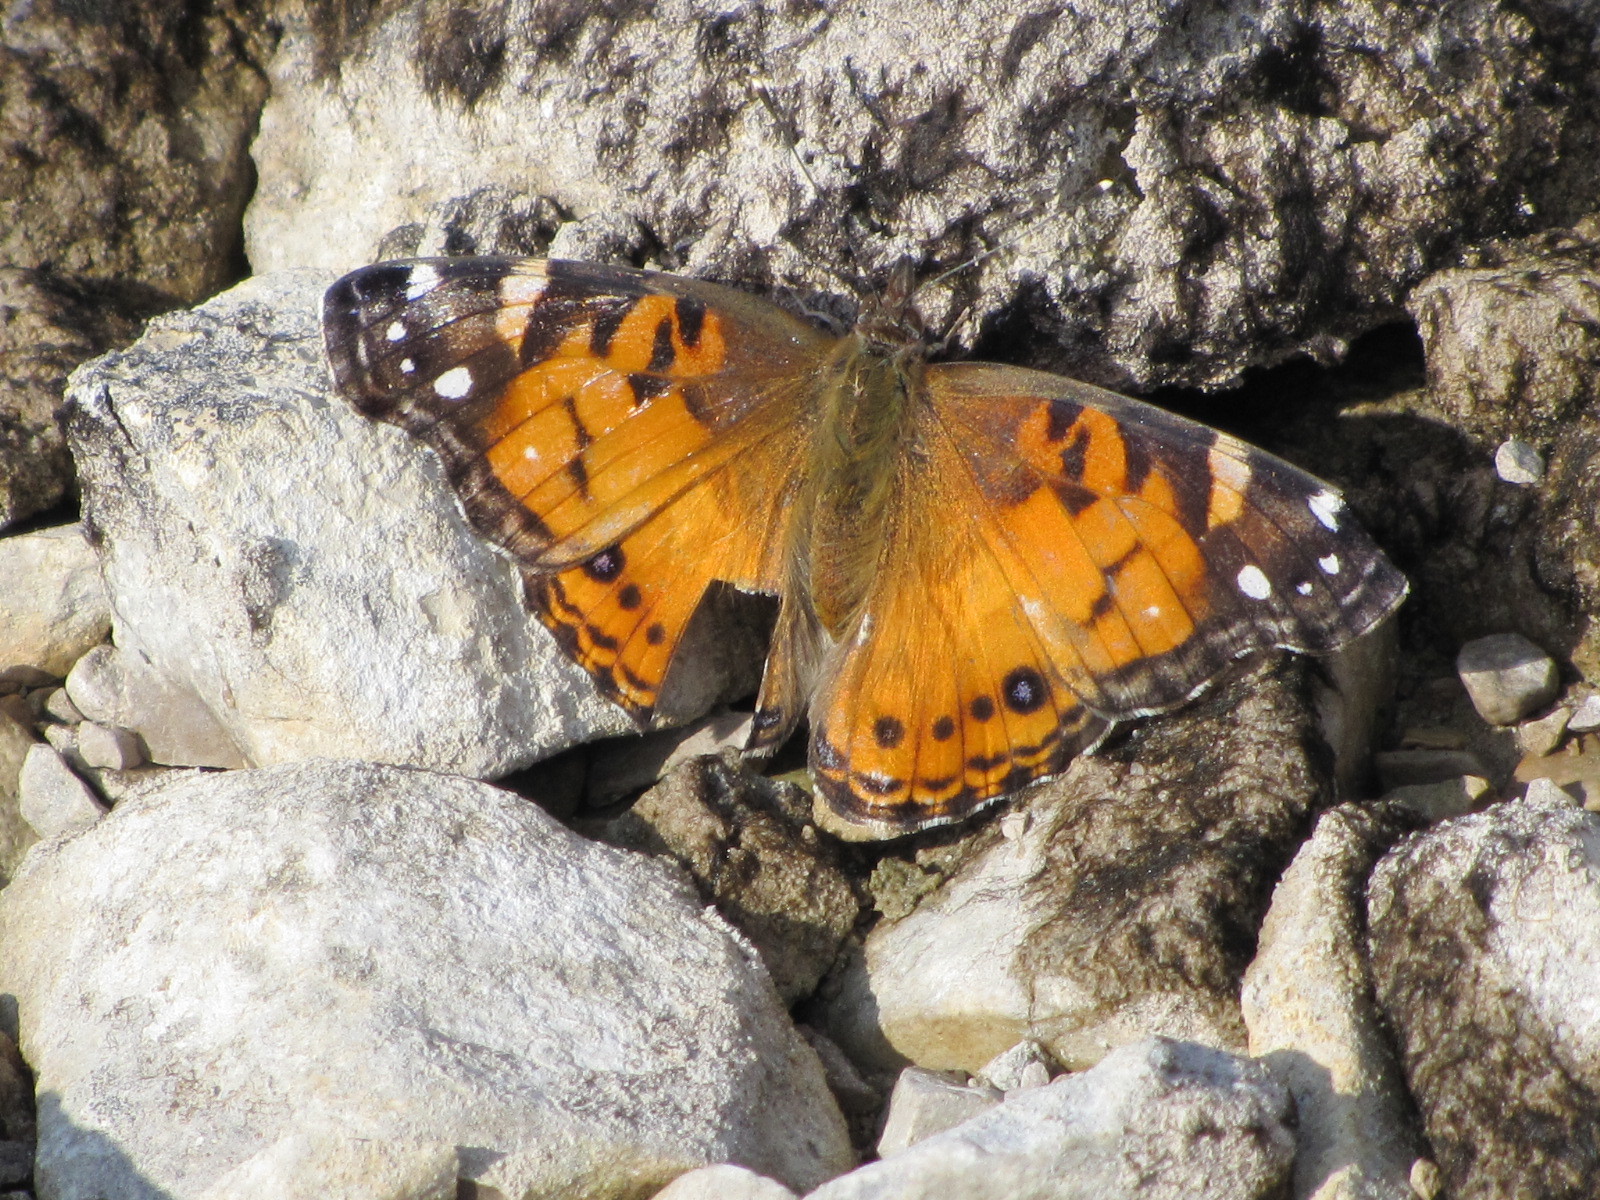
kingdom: Animalia
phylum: Arthropoda
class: Insecta
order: Lepidoptera
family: Nymphalidae
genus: Vanessa
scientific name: Vanessa virginiensis
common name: American lady
